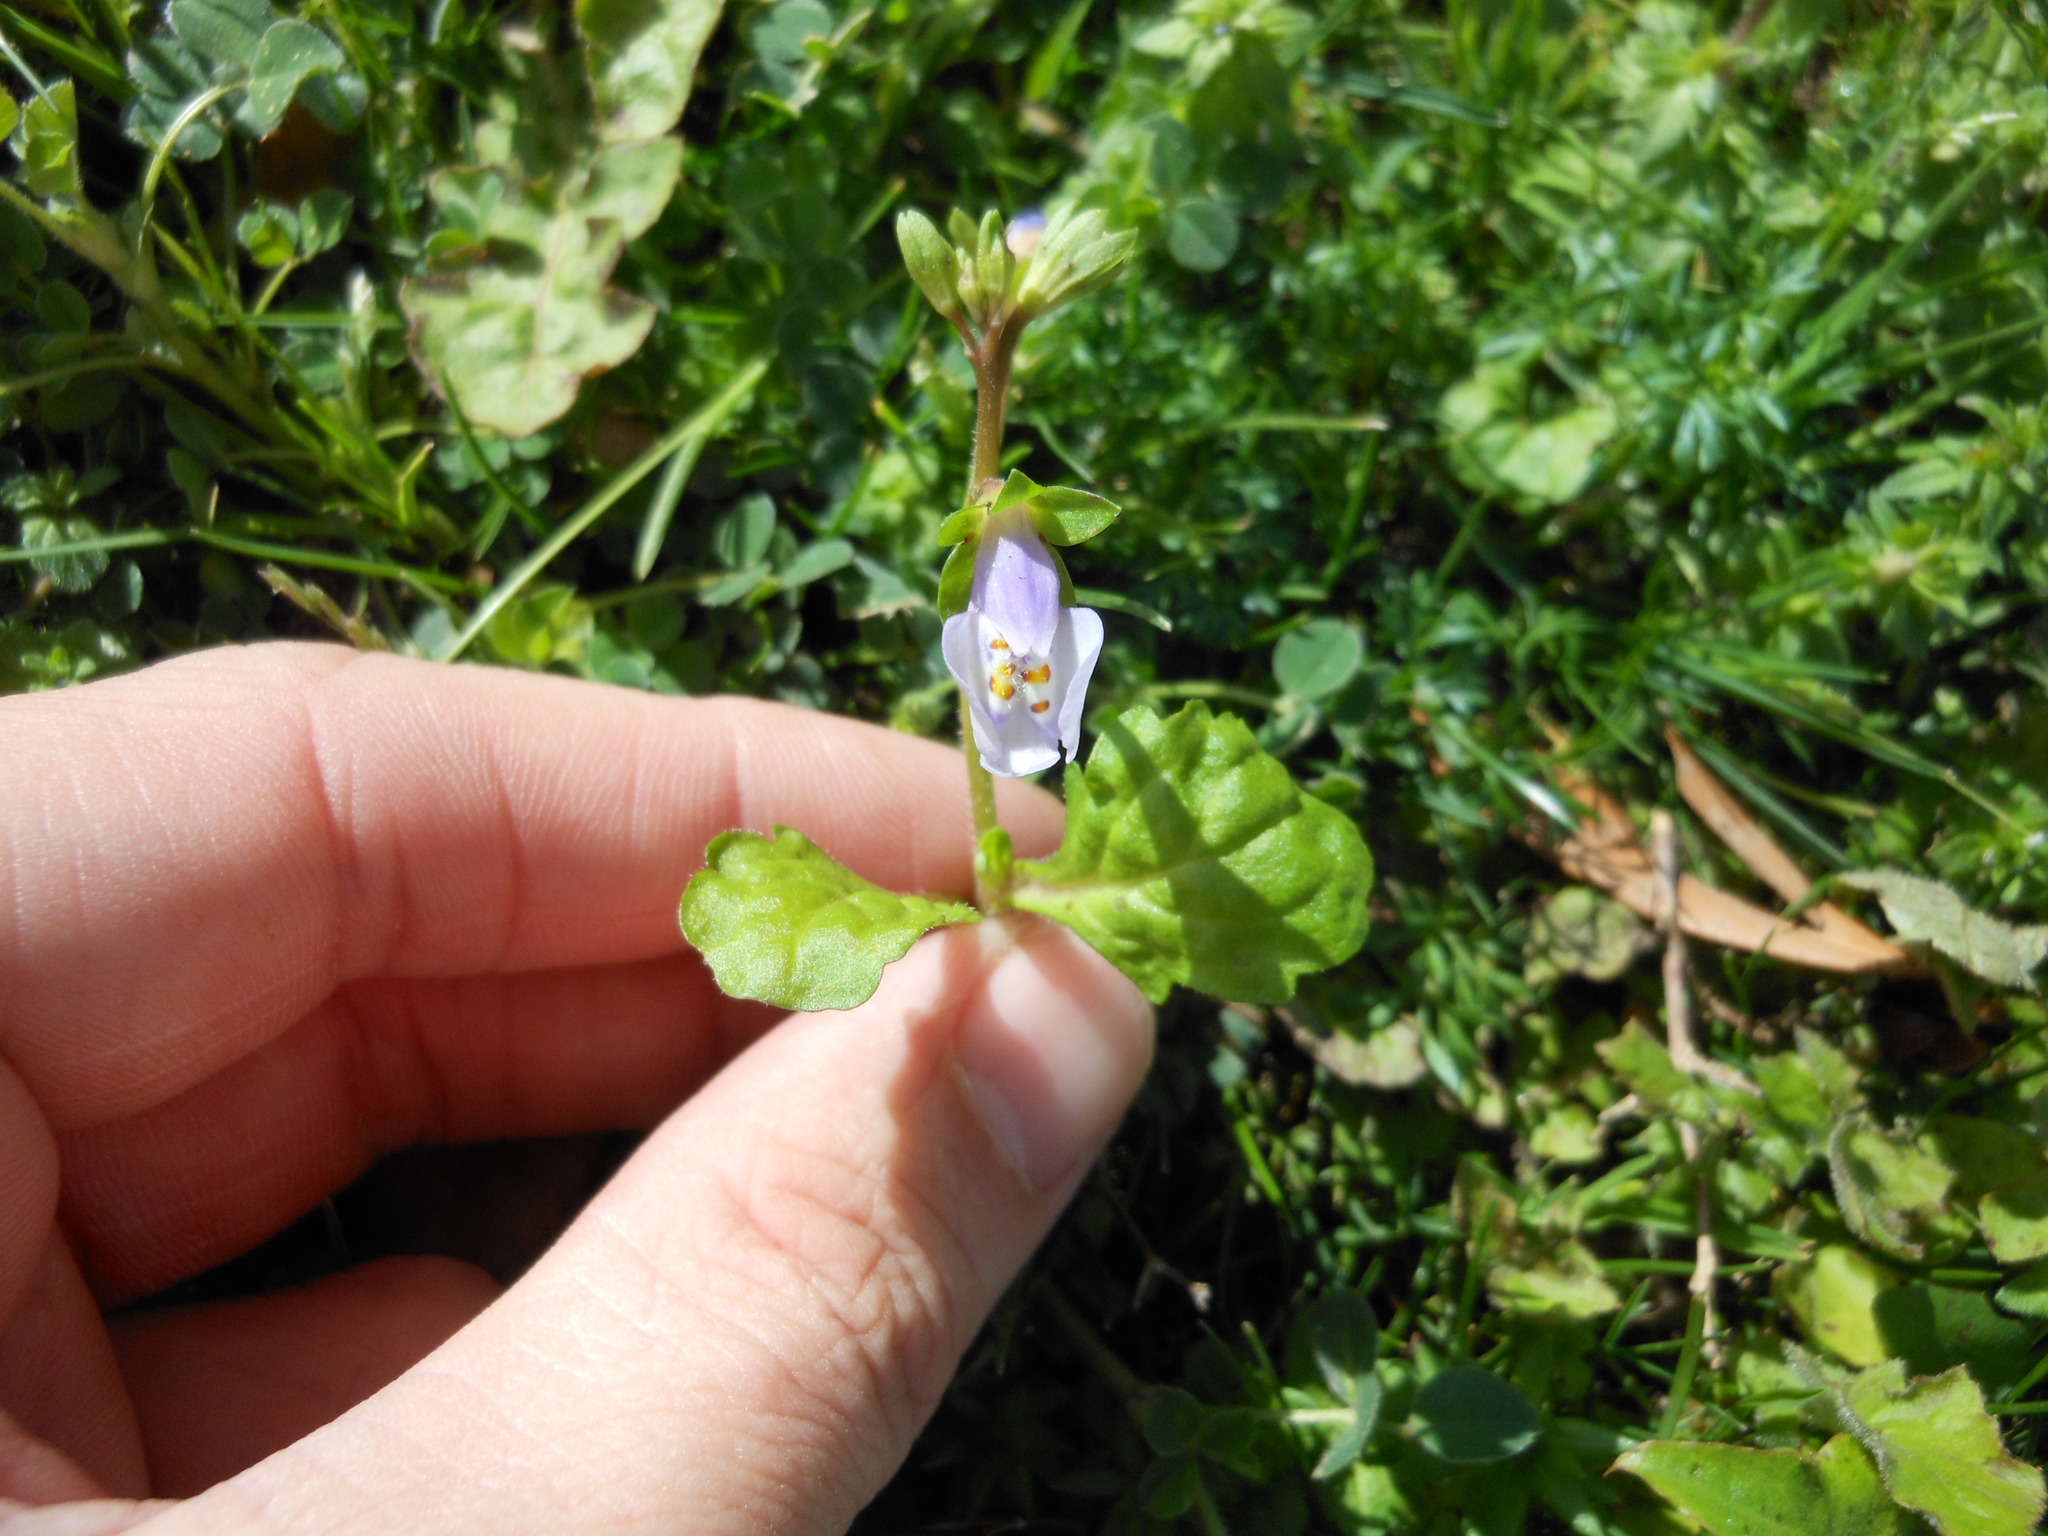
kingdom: Plantae
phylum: Tracheophyta
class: Magnoliopsida
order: Lamiales
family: Mazaceae
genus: Mazus
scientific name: Mazus pumilus
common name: Japanese mazus
